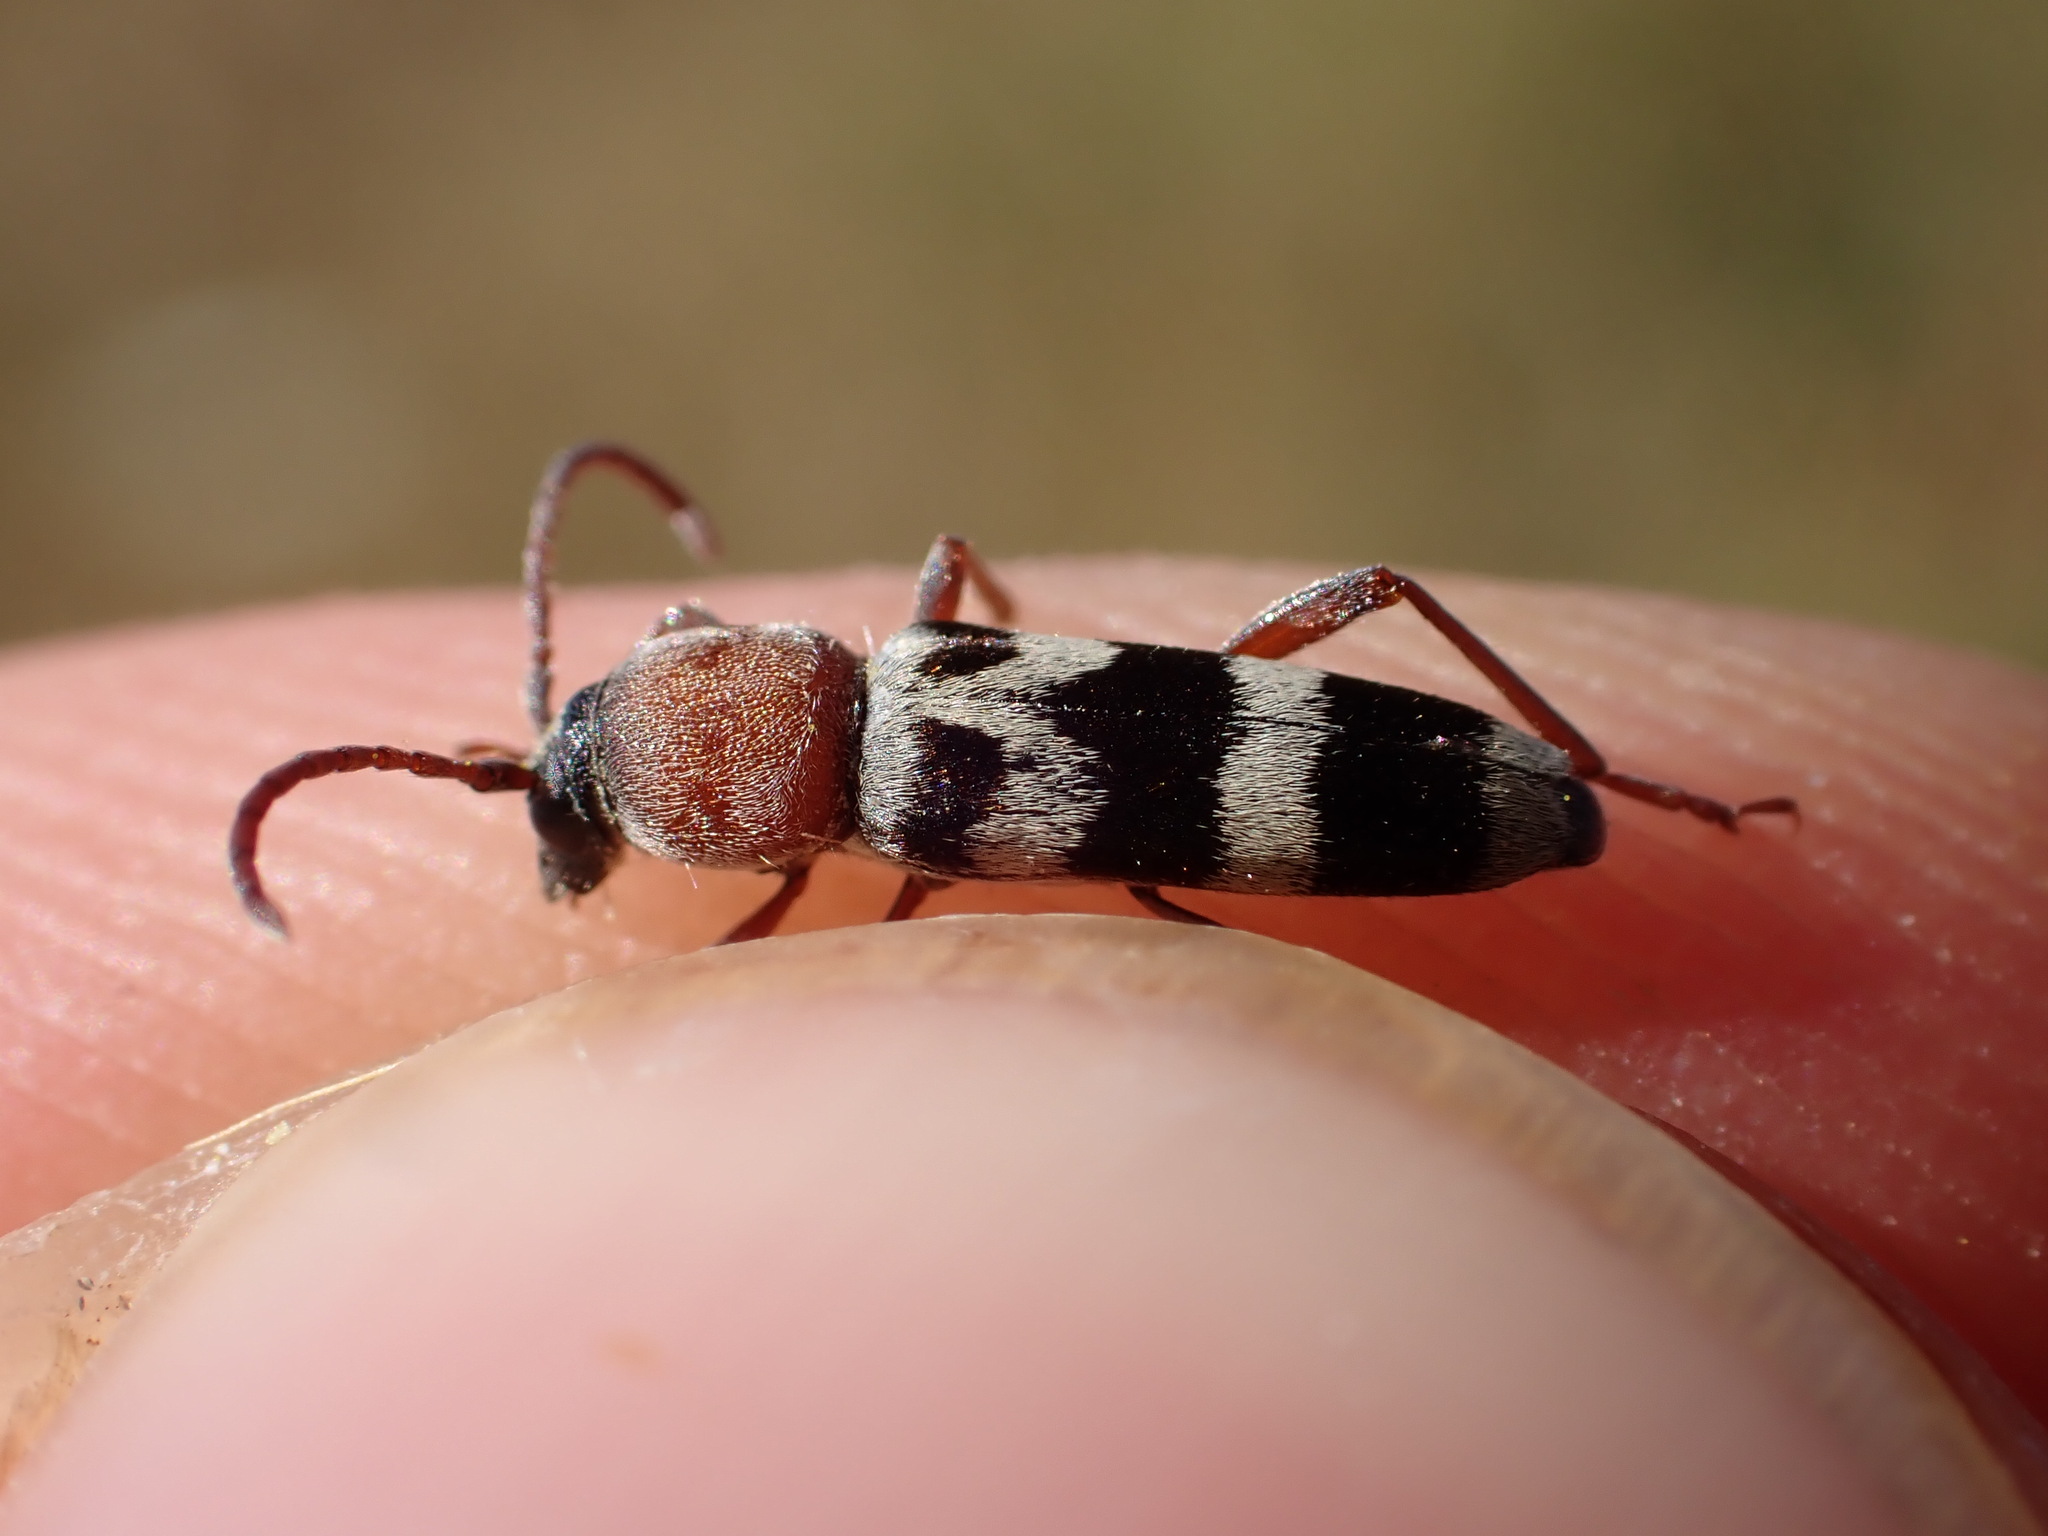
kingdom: Animalia
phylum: Arthropoda
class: Insecta
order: Coleoptera
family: Cerambycidae
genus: Chlorophorus
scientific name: Chlorophorus trifasciatus
